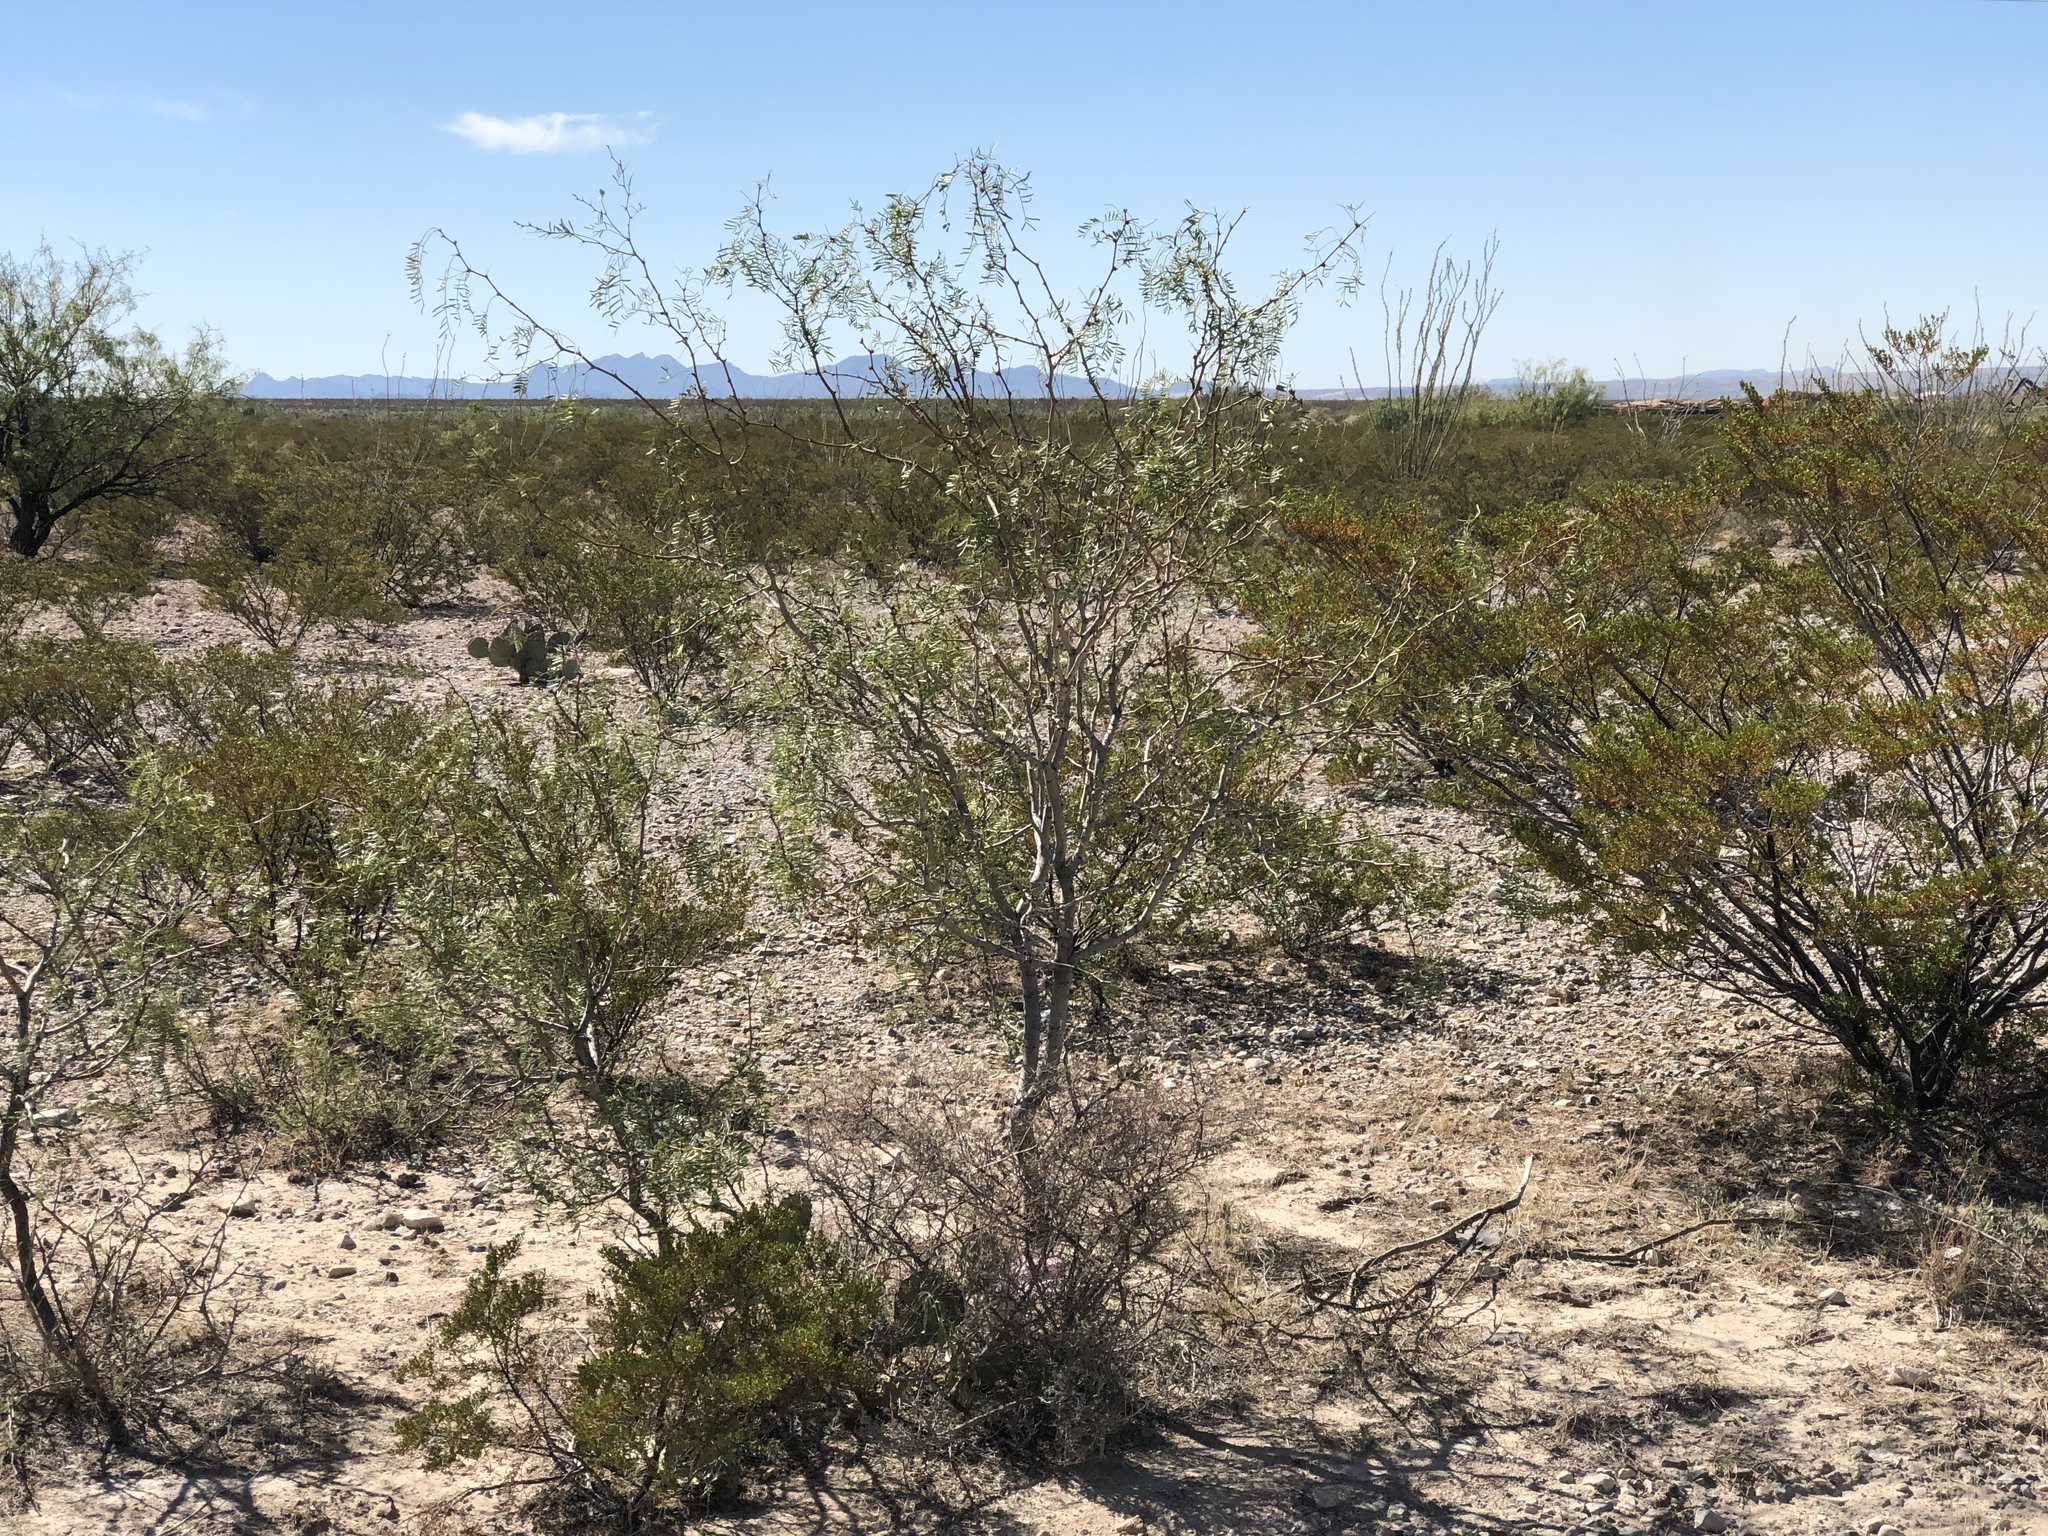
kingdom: Plantae
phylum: Tracheophyta
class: Magnoliopsida
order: Fabales
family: Fabaceae
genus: Prosopis
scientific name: Prosopis glandulosa
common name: Honey mesquite
